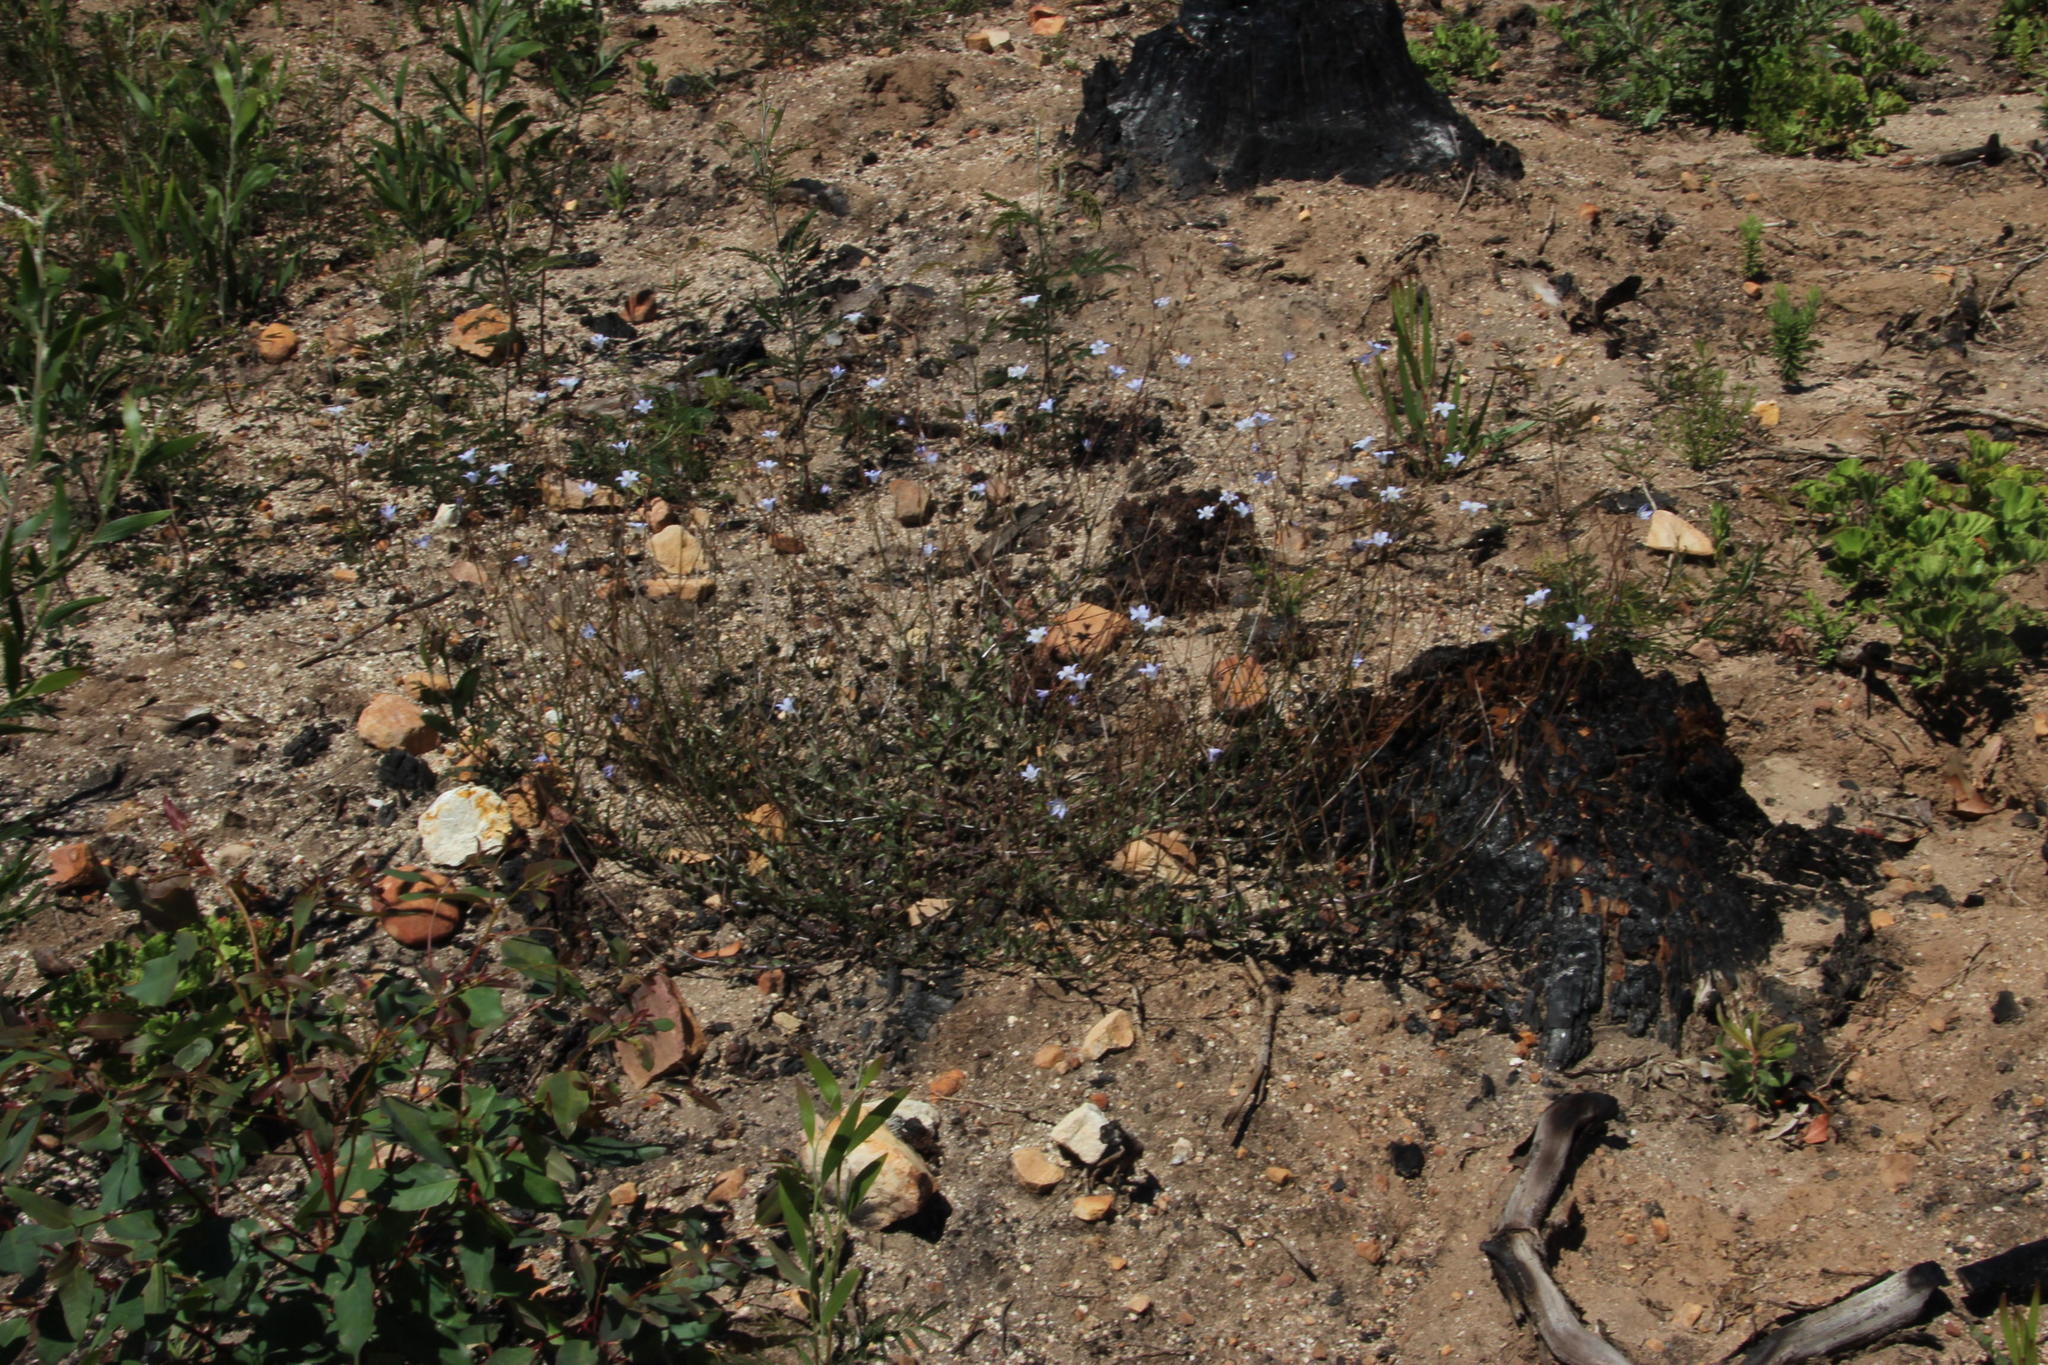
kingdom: Plantae
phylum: Tracheophyta
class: Magnoliopsida
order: Asterales
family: Campanulaceae
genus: Wahlenbergia
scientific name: Wahlenbergia obovata
